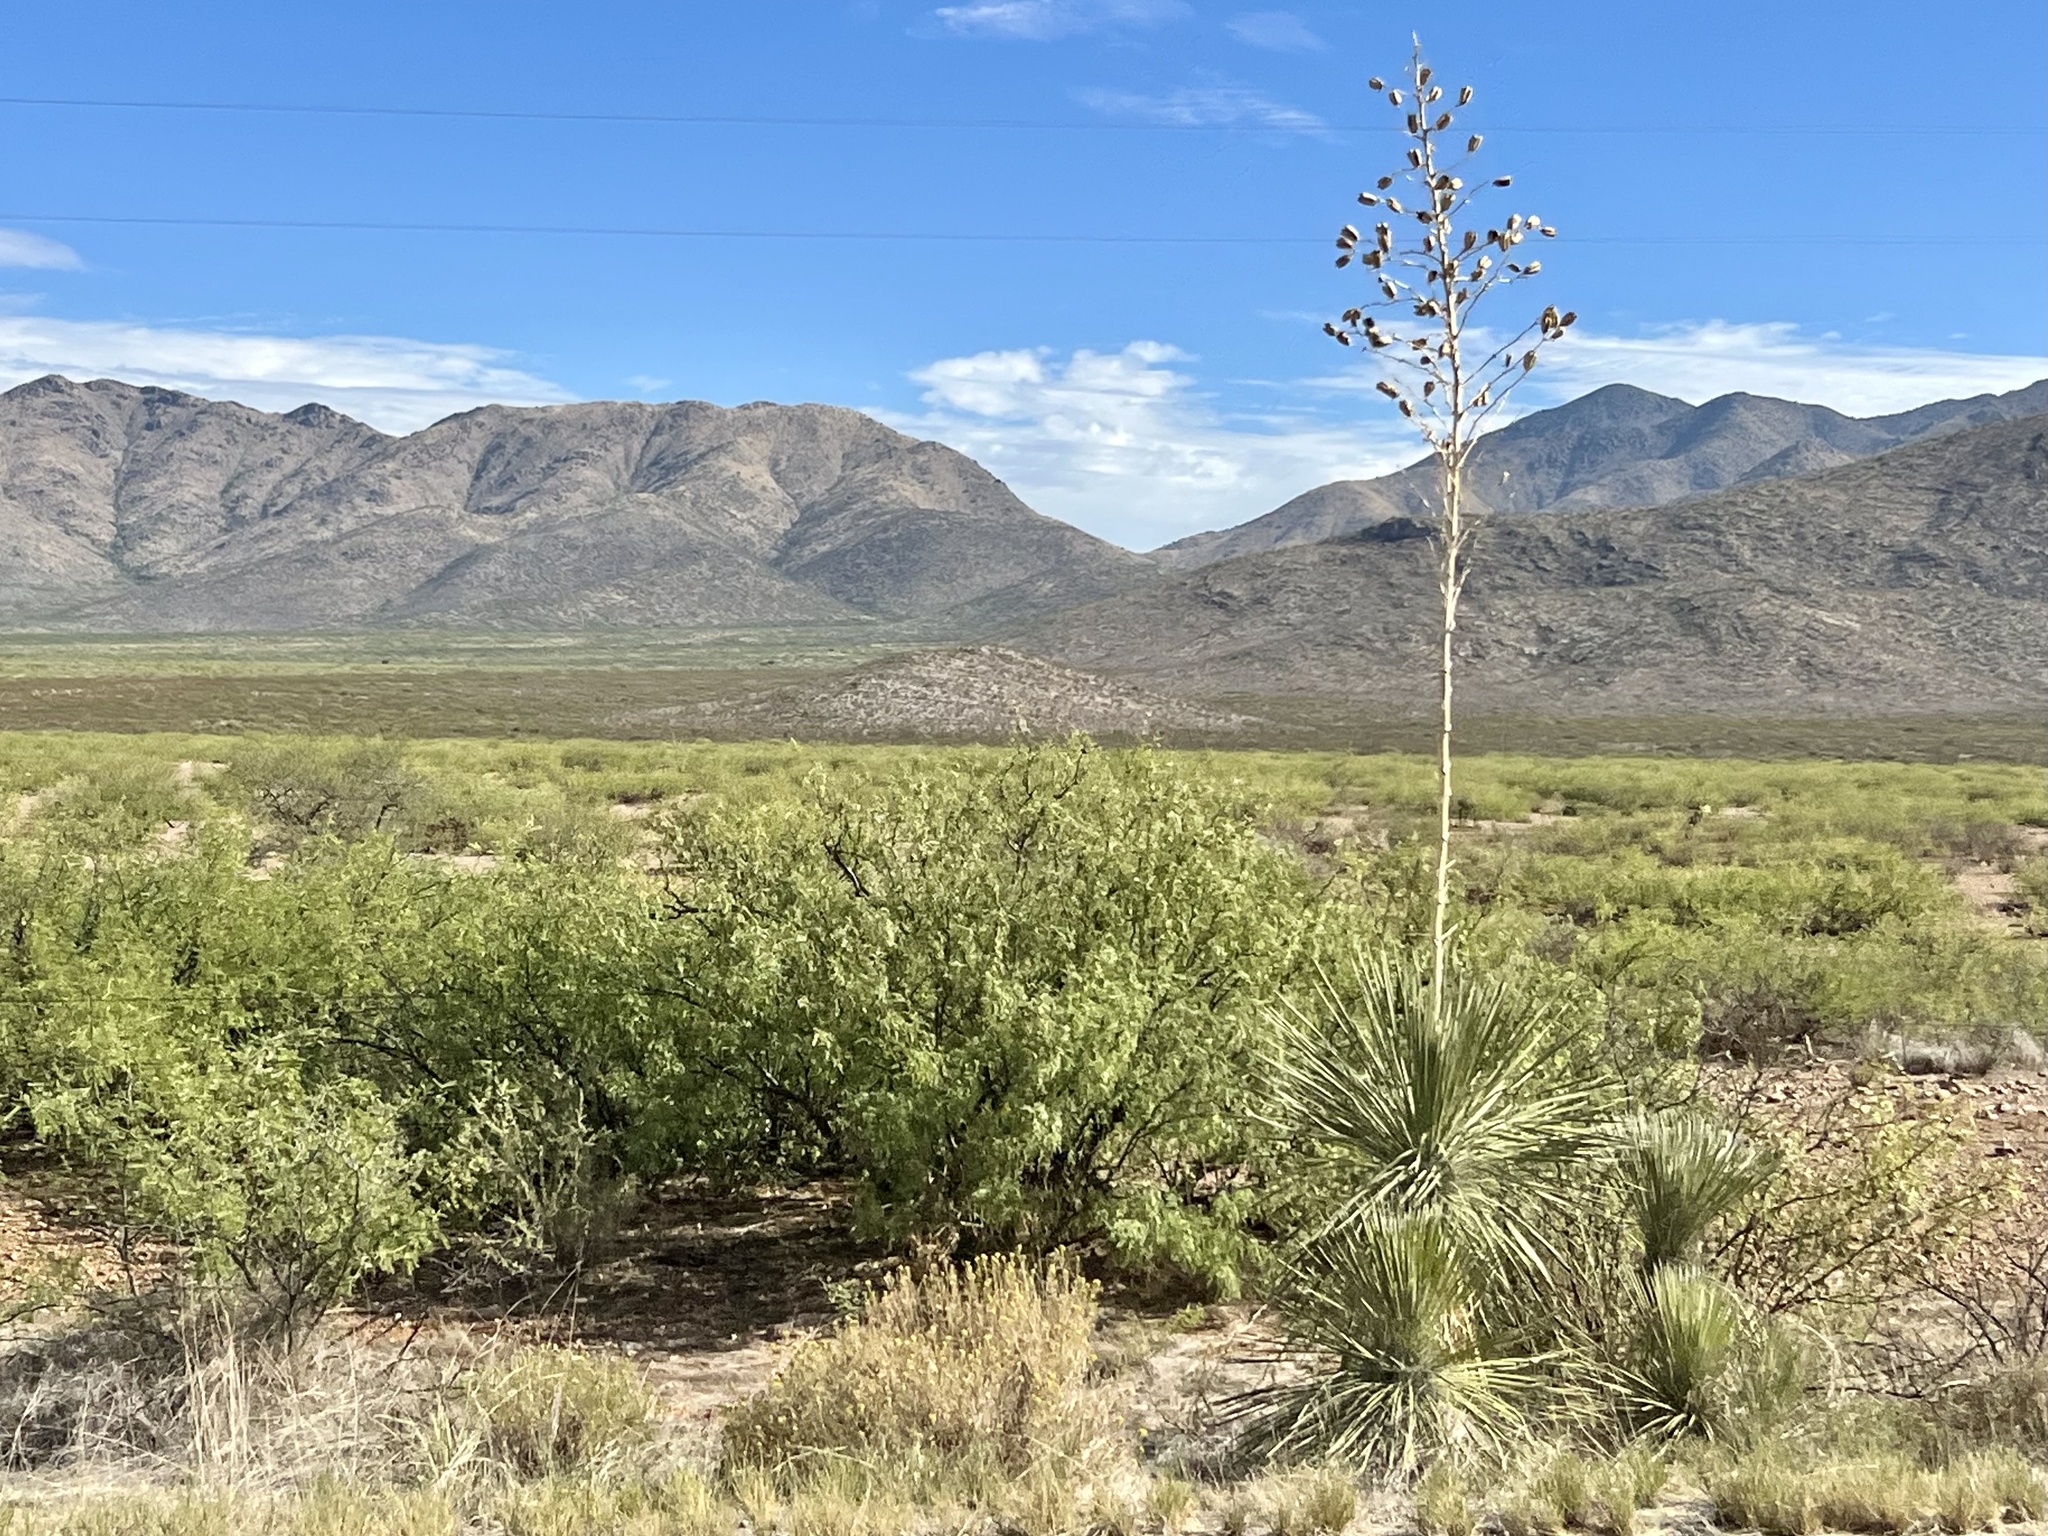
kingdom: Plantae
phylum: Tracheophyta
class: Liliopsida
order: Asparagales
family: Asparagaceae
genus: Yucca
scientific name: Yucca elata
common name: Palmella
